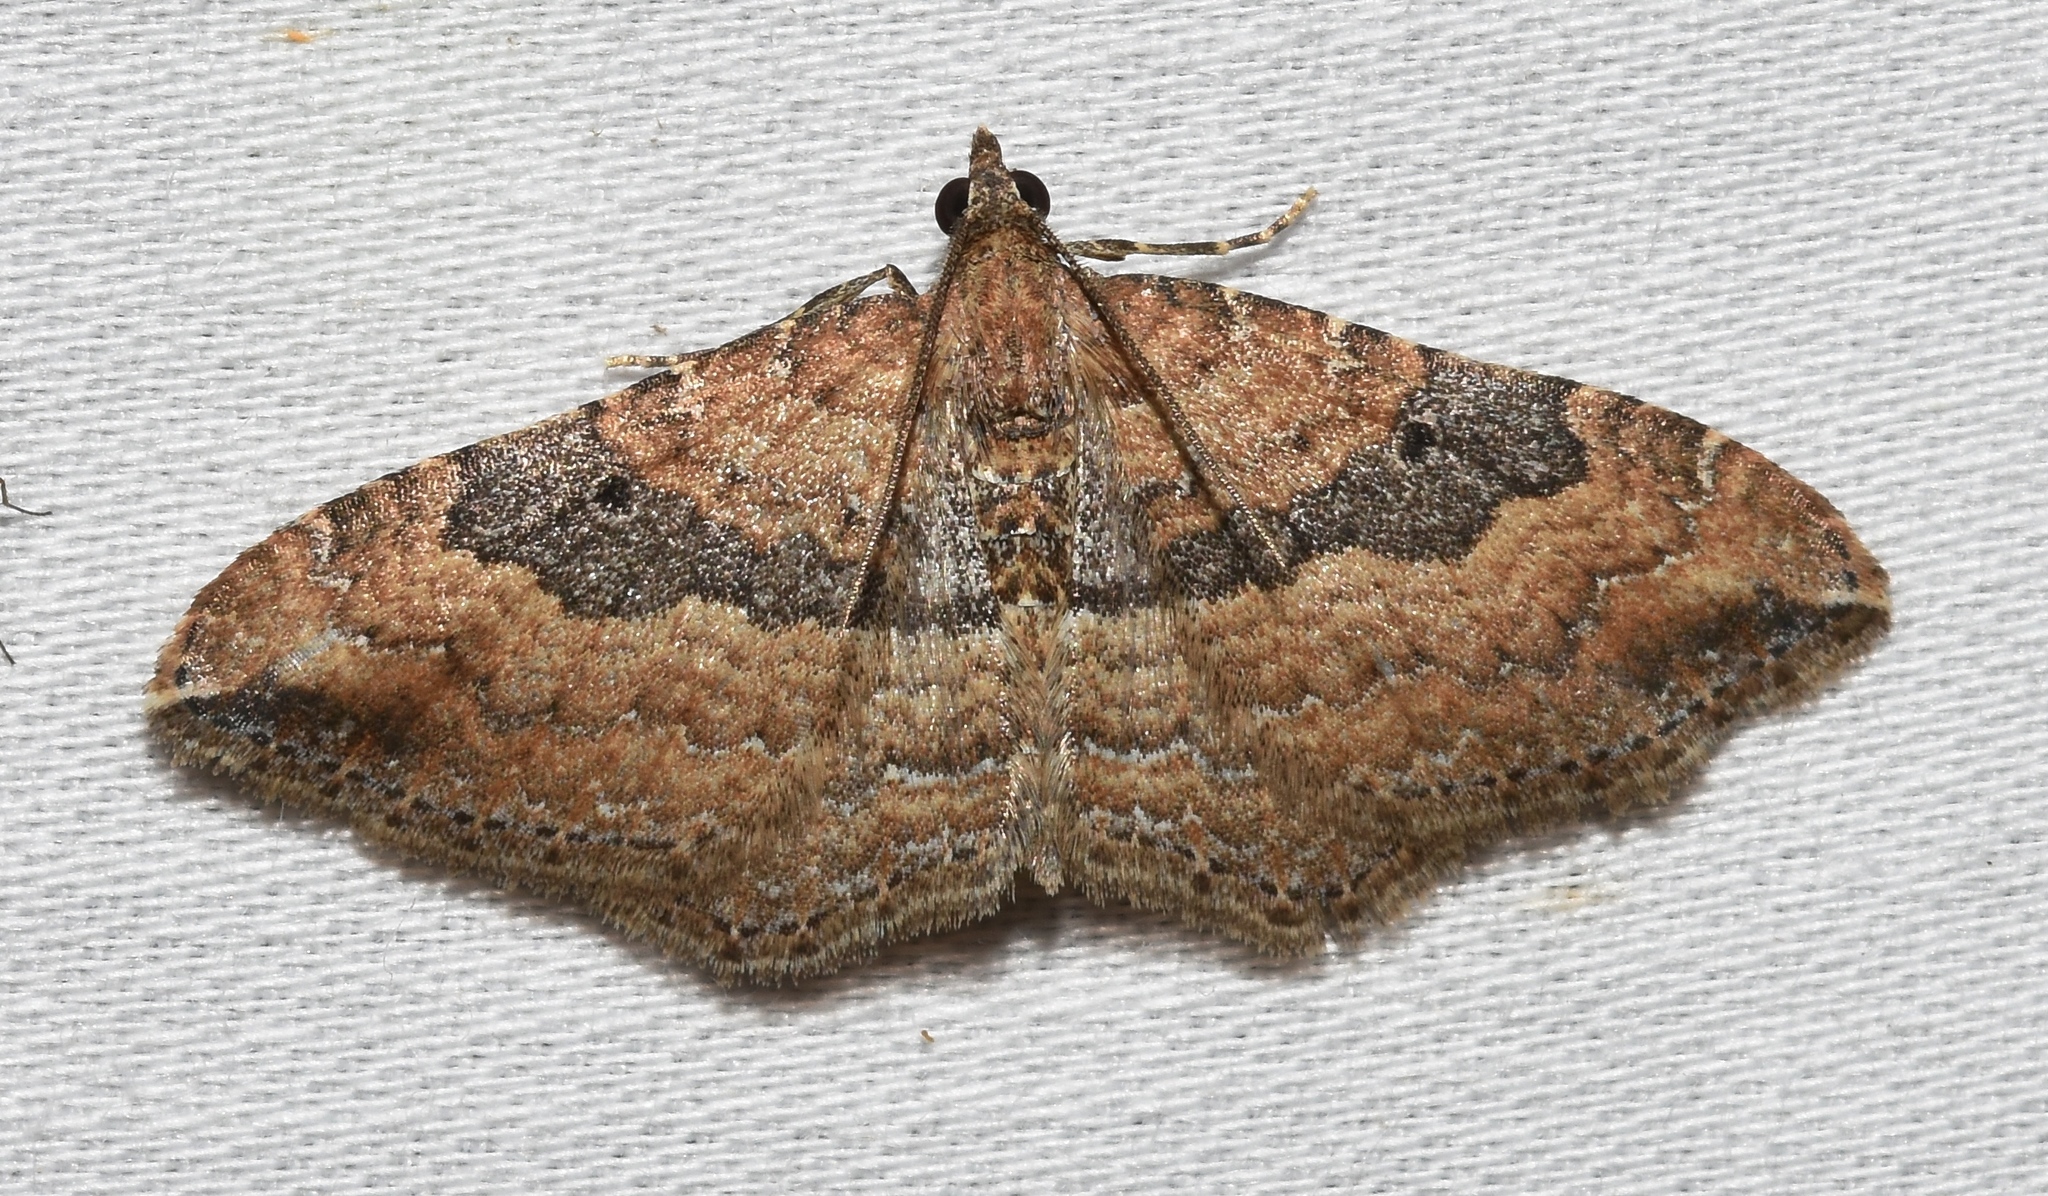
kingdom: Animalia
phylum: Arthropoda
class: Insecta
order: Lepidoptera
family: Geometridae
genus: Orthonama
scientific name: Orthonama obstipata
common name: The gem
